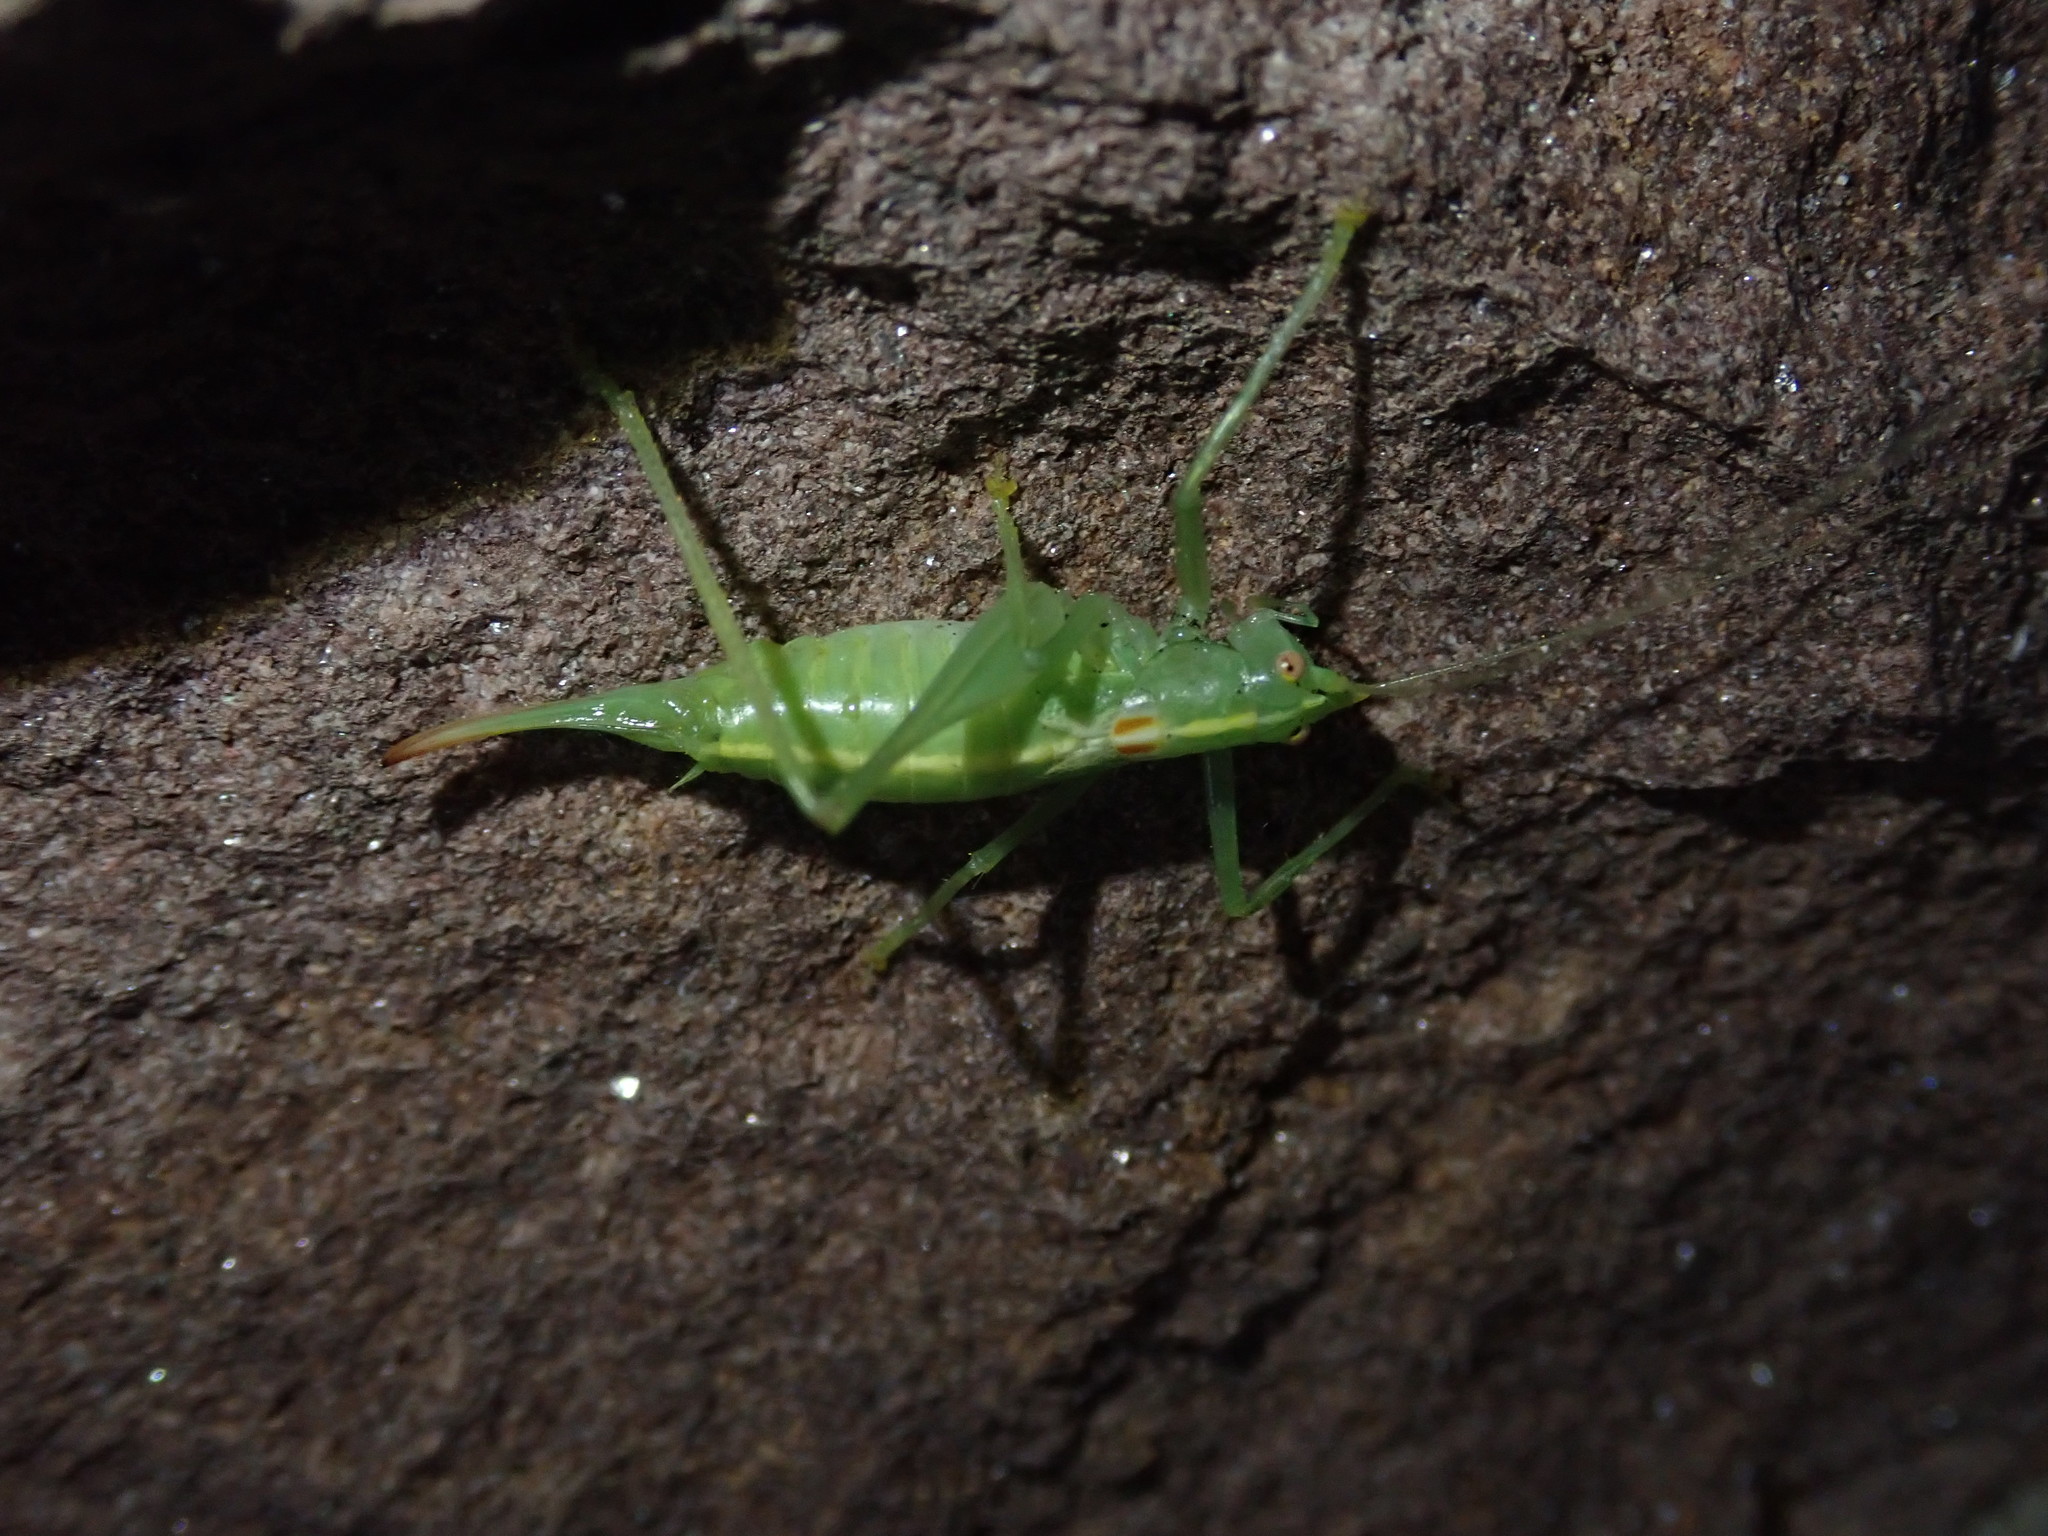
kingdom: Animalia
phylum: Arthropoda
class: Insecta
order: Orthoptera
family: Tettigoniidae
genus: Meconema
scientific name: Meconema meridionale
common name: Southern oak bush-cricket
